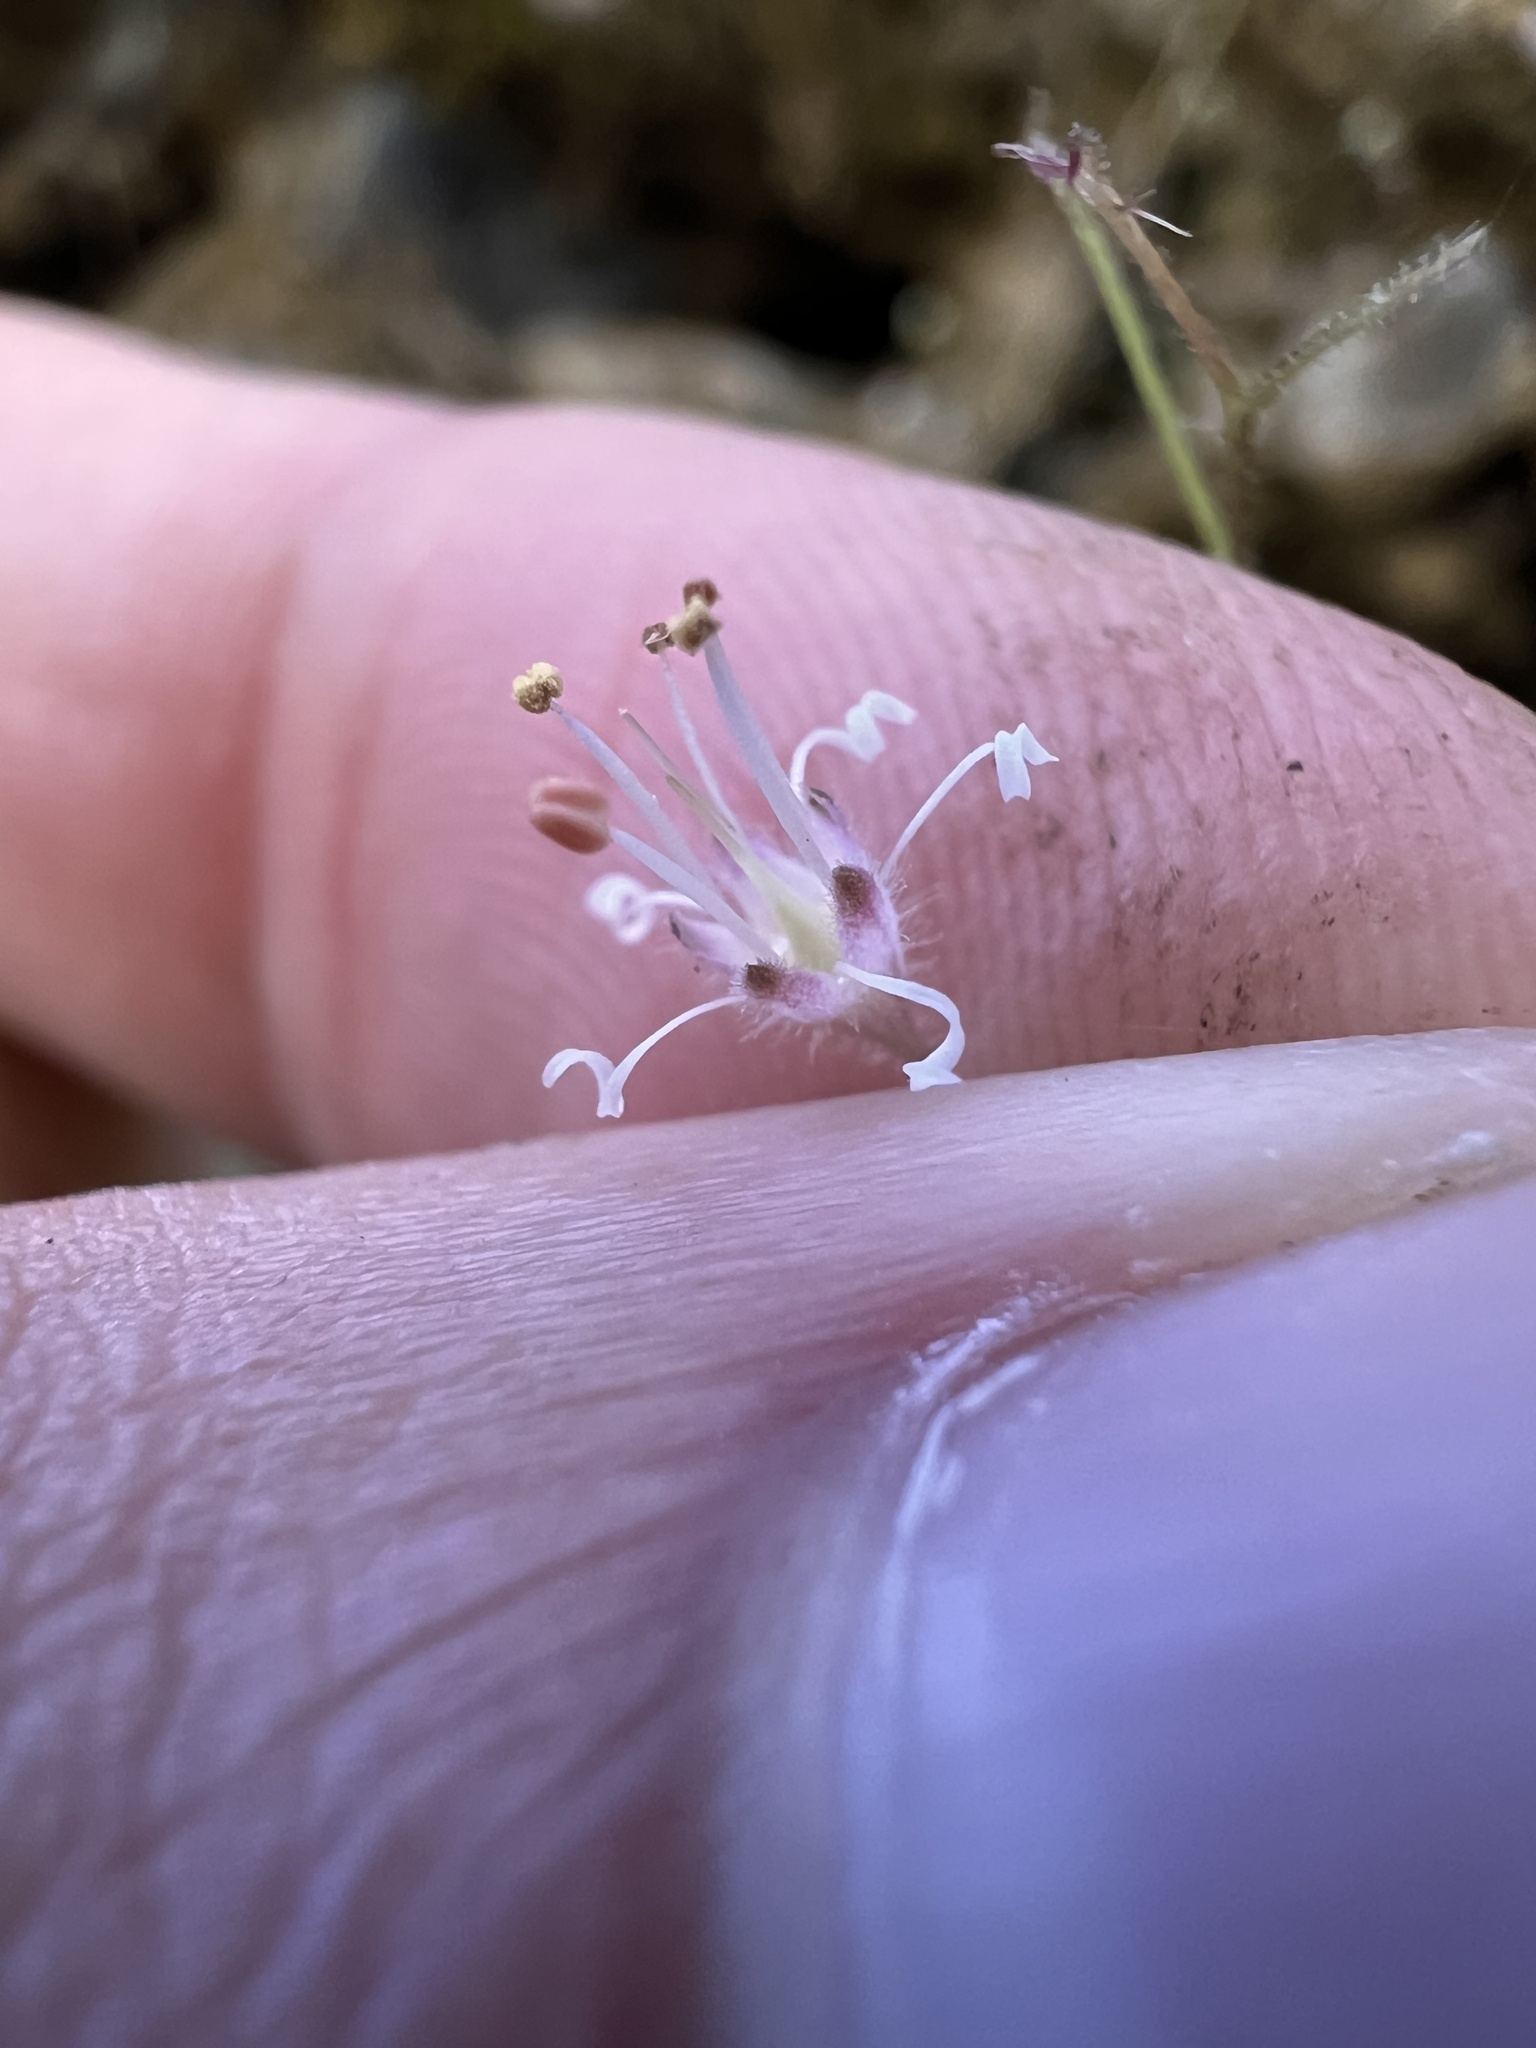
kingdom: Plantae
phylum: Tracheophyta
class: Magnoliopsida
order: Saxifragales
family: Saxifragaceae
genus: Heuchera
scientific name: Heuchera parviflora
